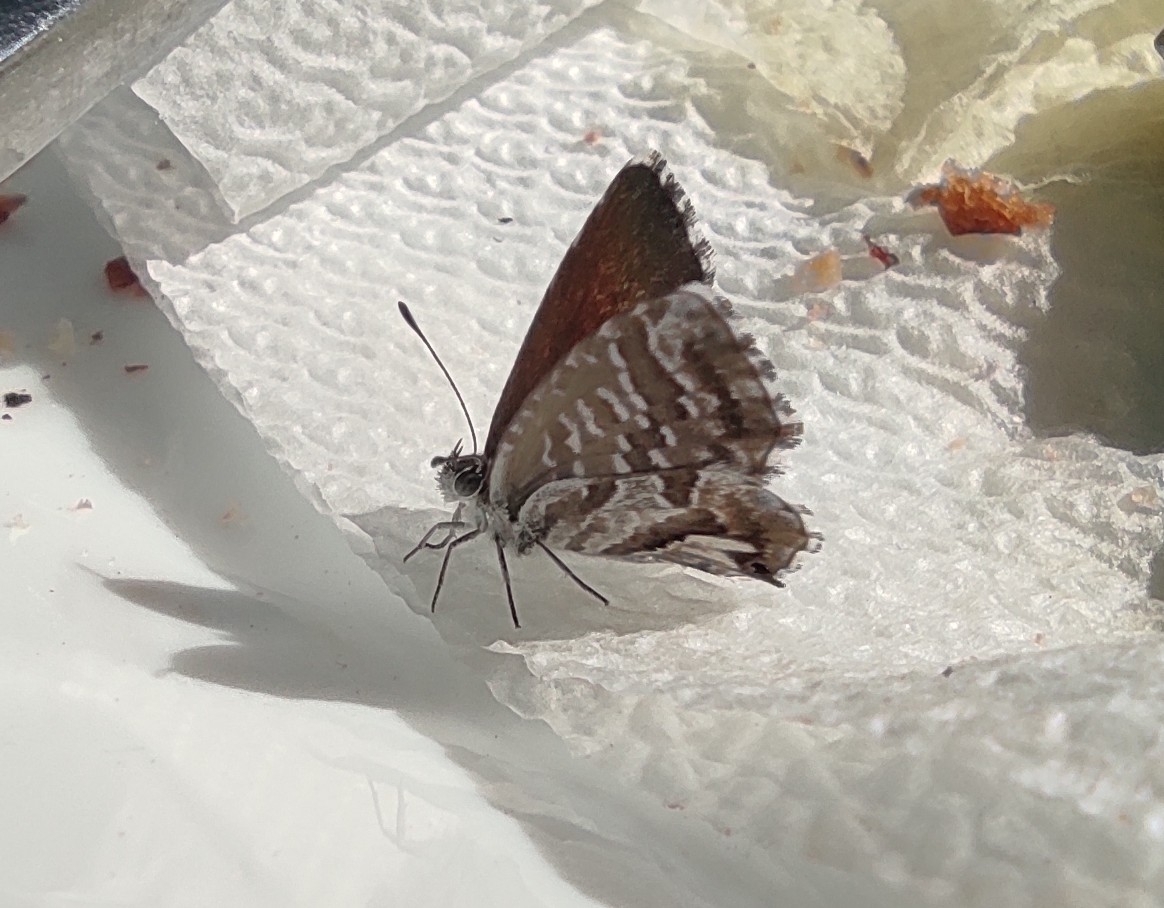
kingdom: Animalia
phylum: Arthropoda
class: Insecta
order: Lepidoptera
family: Lycaenidae
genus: Cacyreus
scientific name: Cacyreus marshalli
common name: Geranium bronze
